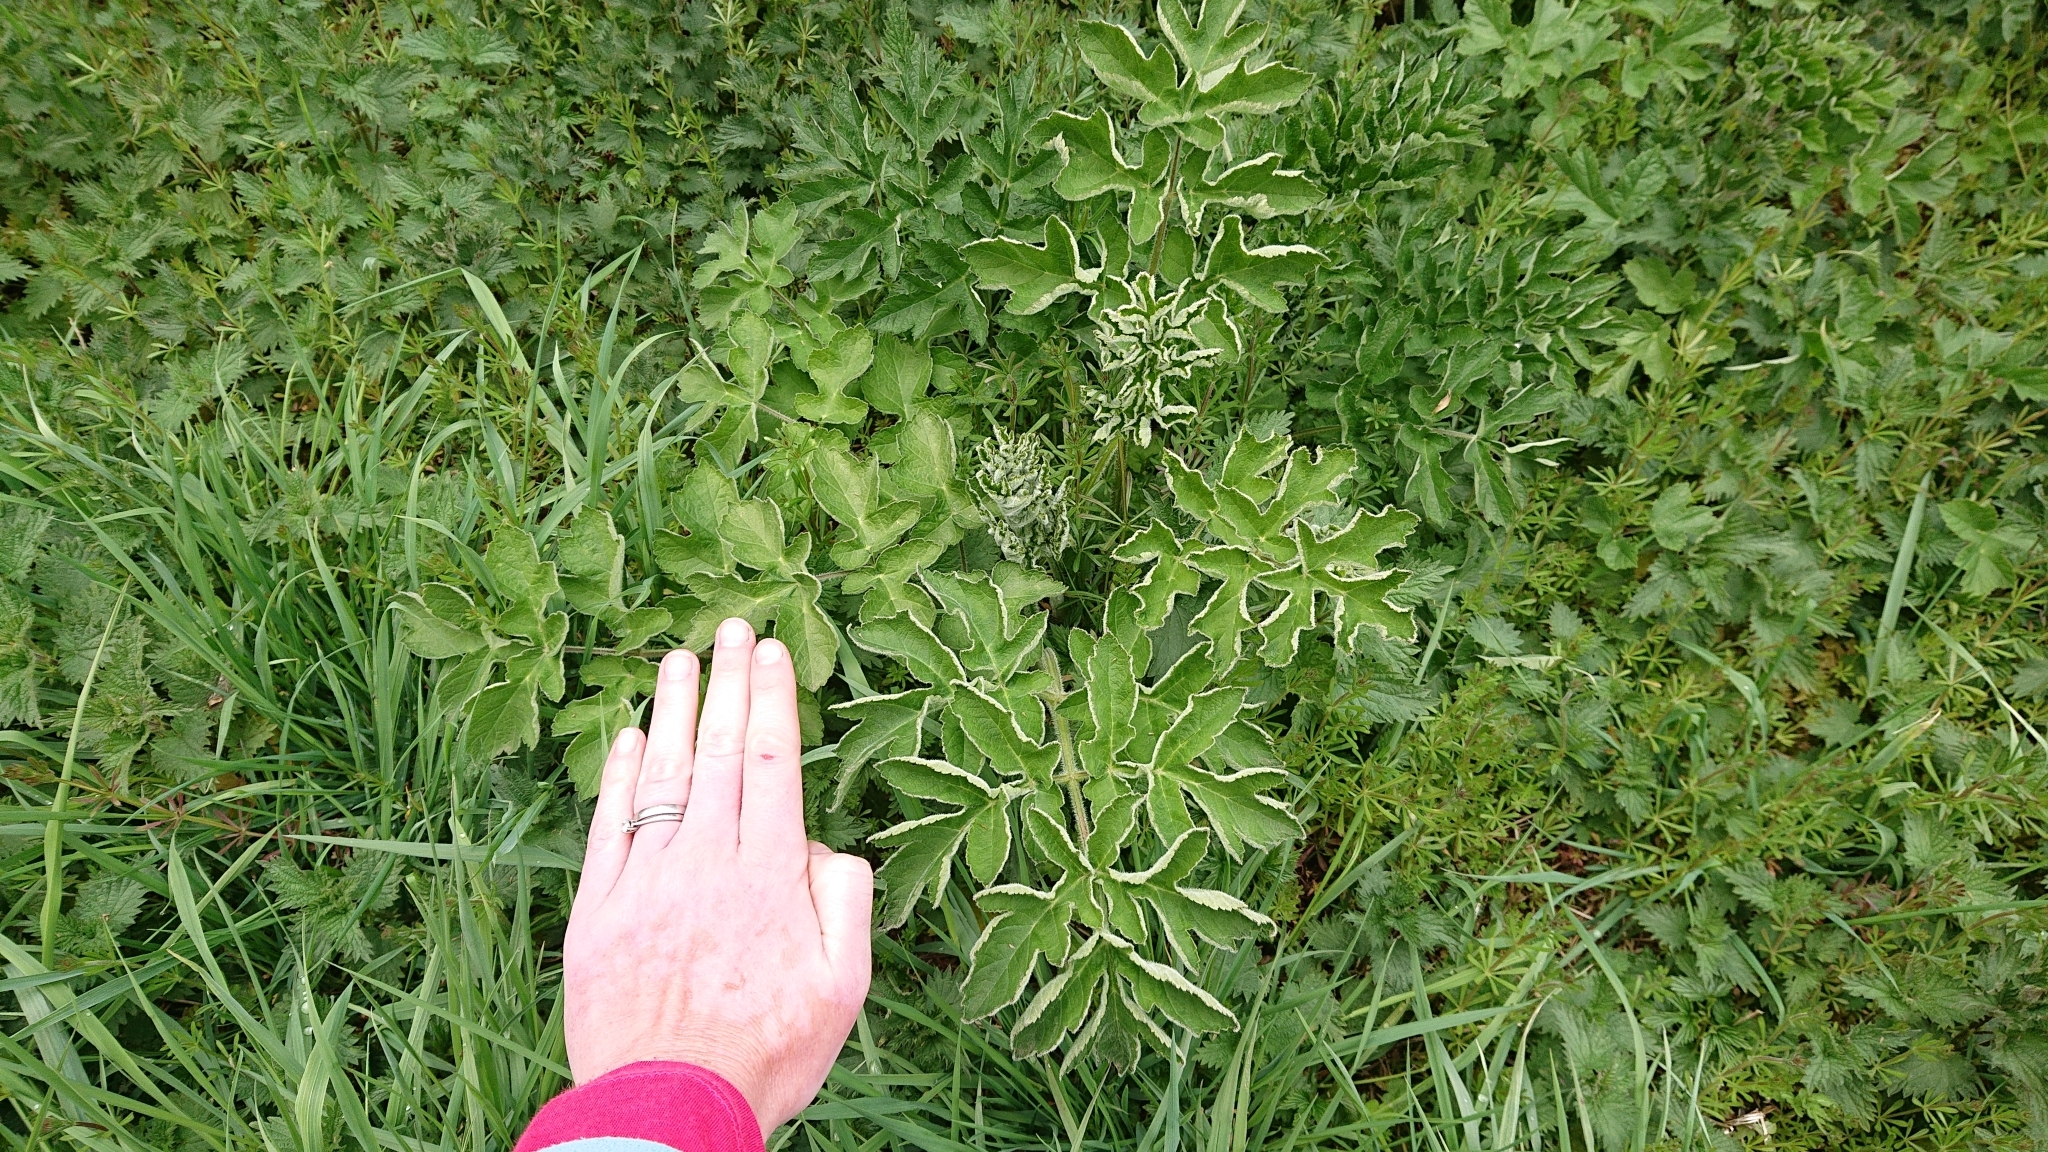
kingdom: Plantae
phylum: Tracheophyta
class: Magnoliopsida
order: Apiales
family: Apiaceae
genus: Heracleum
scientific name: Heracleum sphondylium
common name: Hogweed
